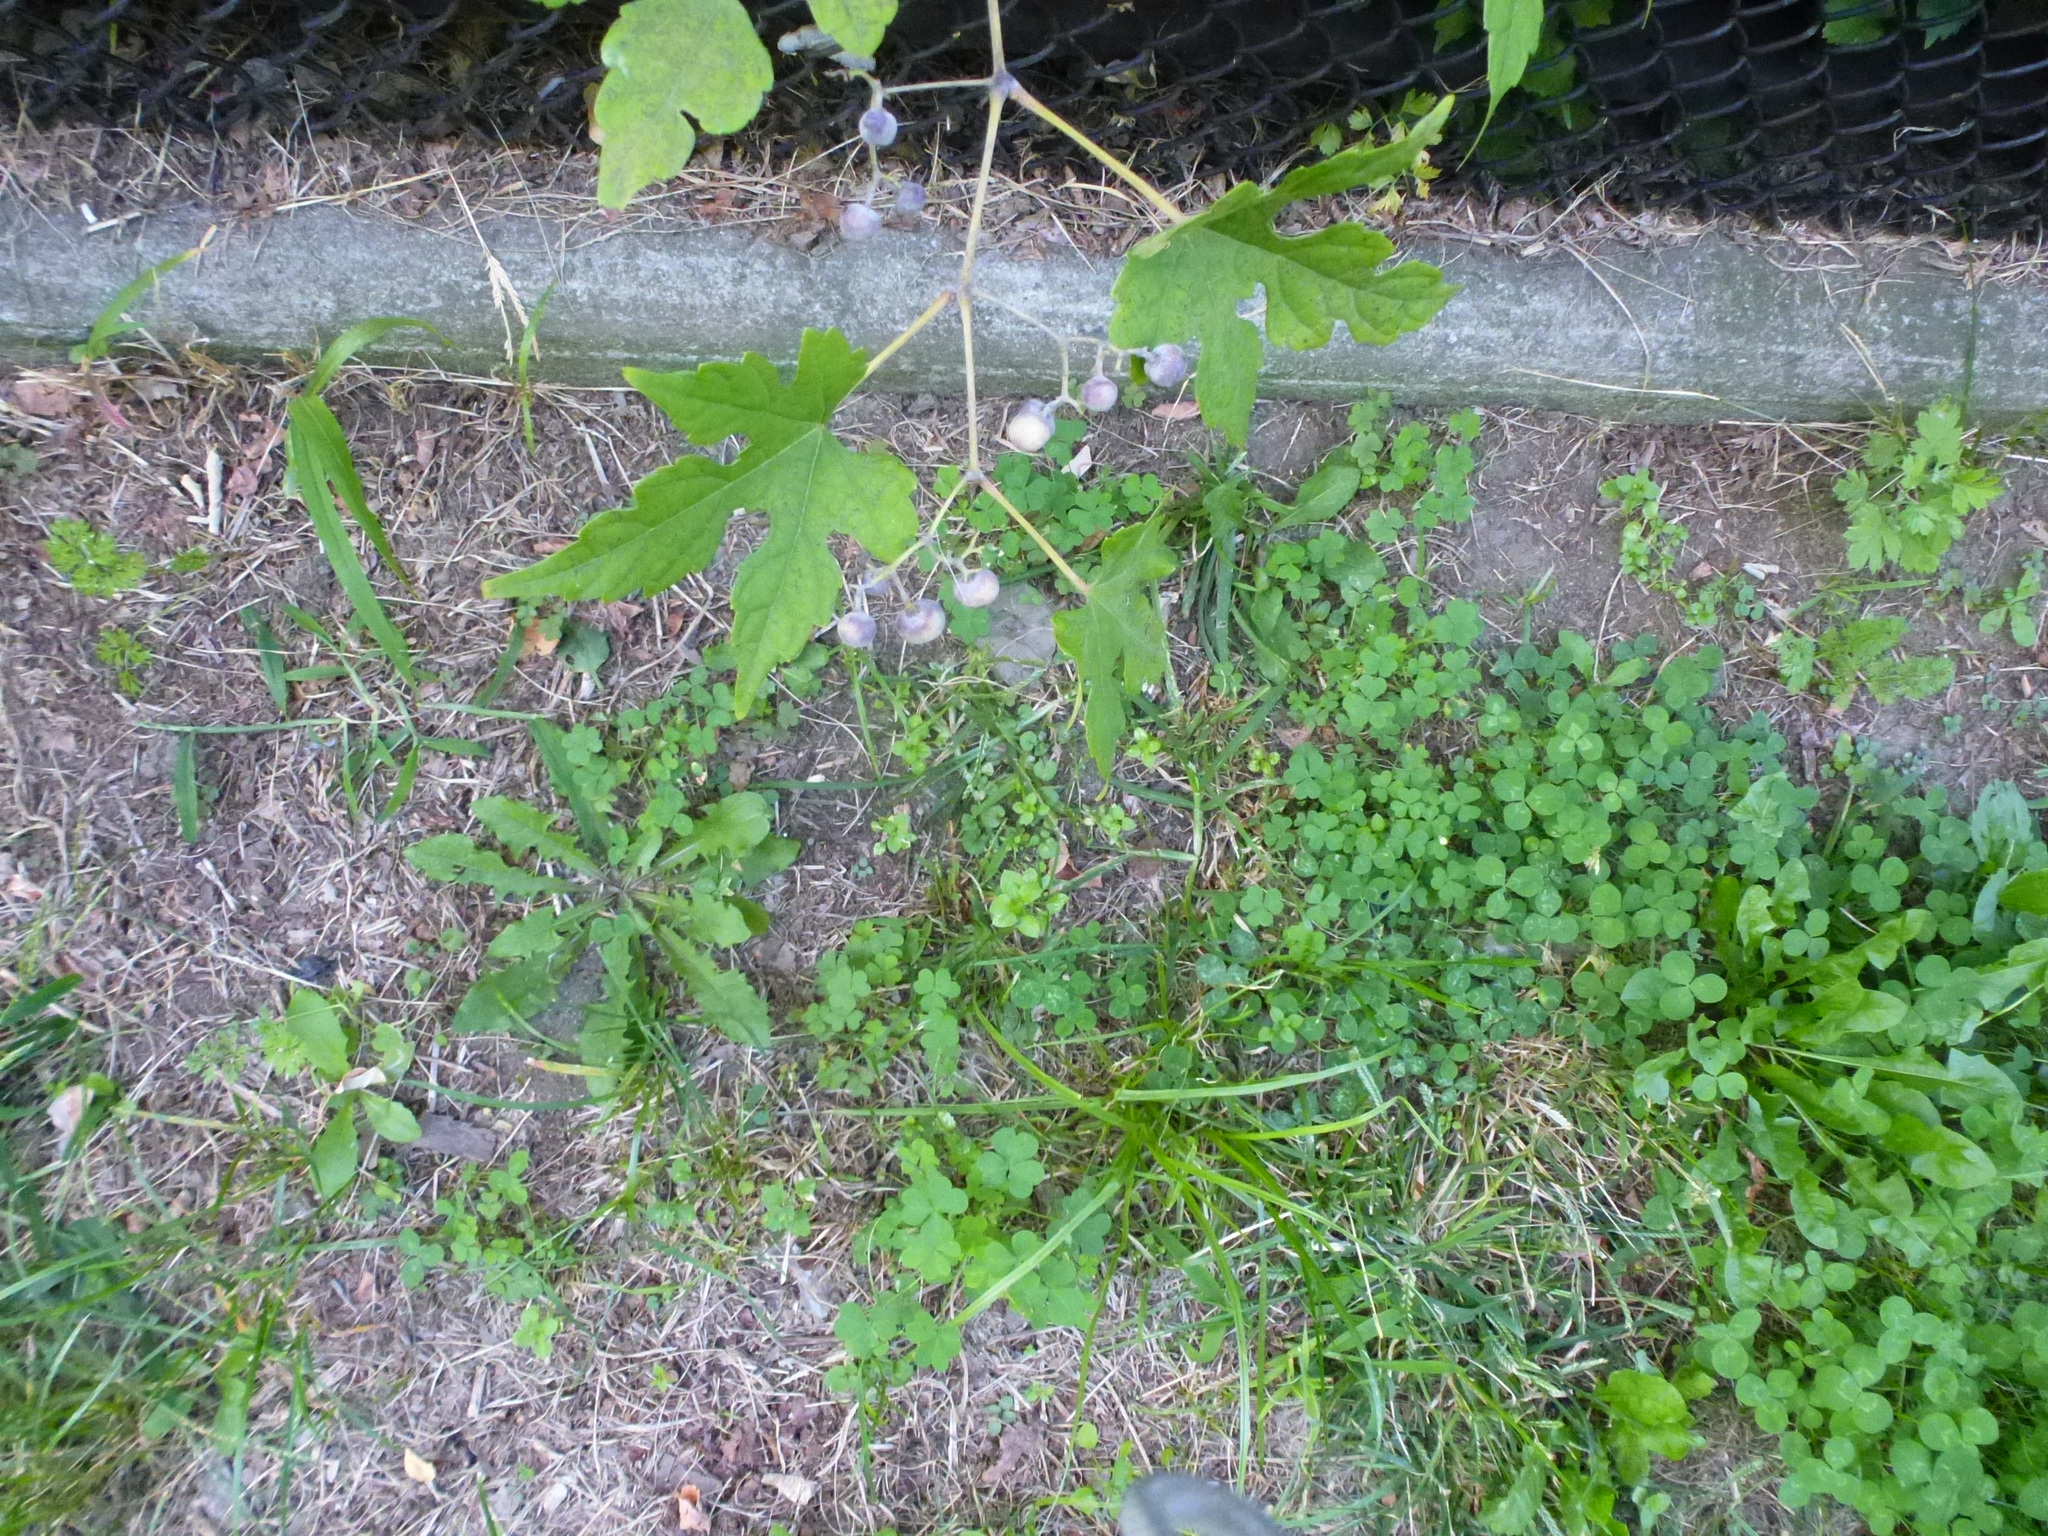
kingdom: Plantae
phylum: Tracheophyta
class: Magnoliopsida
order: Vitales
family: Vitaceae
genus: Ampelopsis
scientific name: Ampelopsis glandulosa
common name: Amur peppervine
